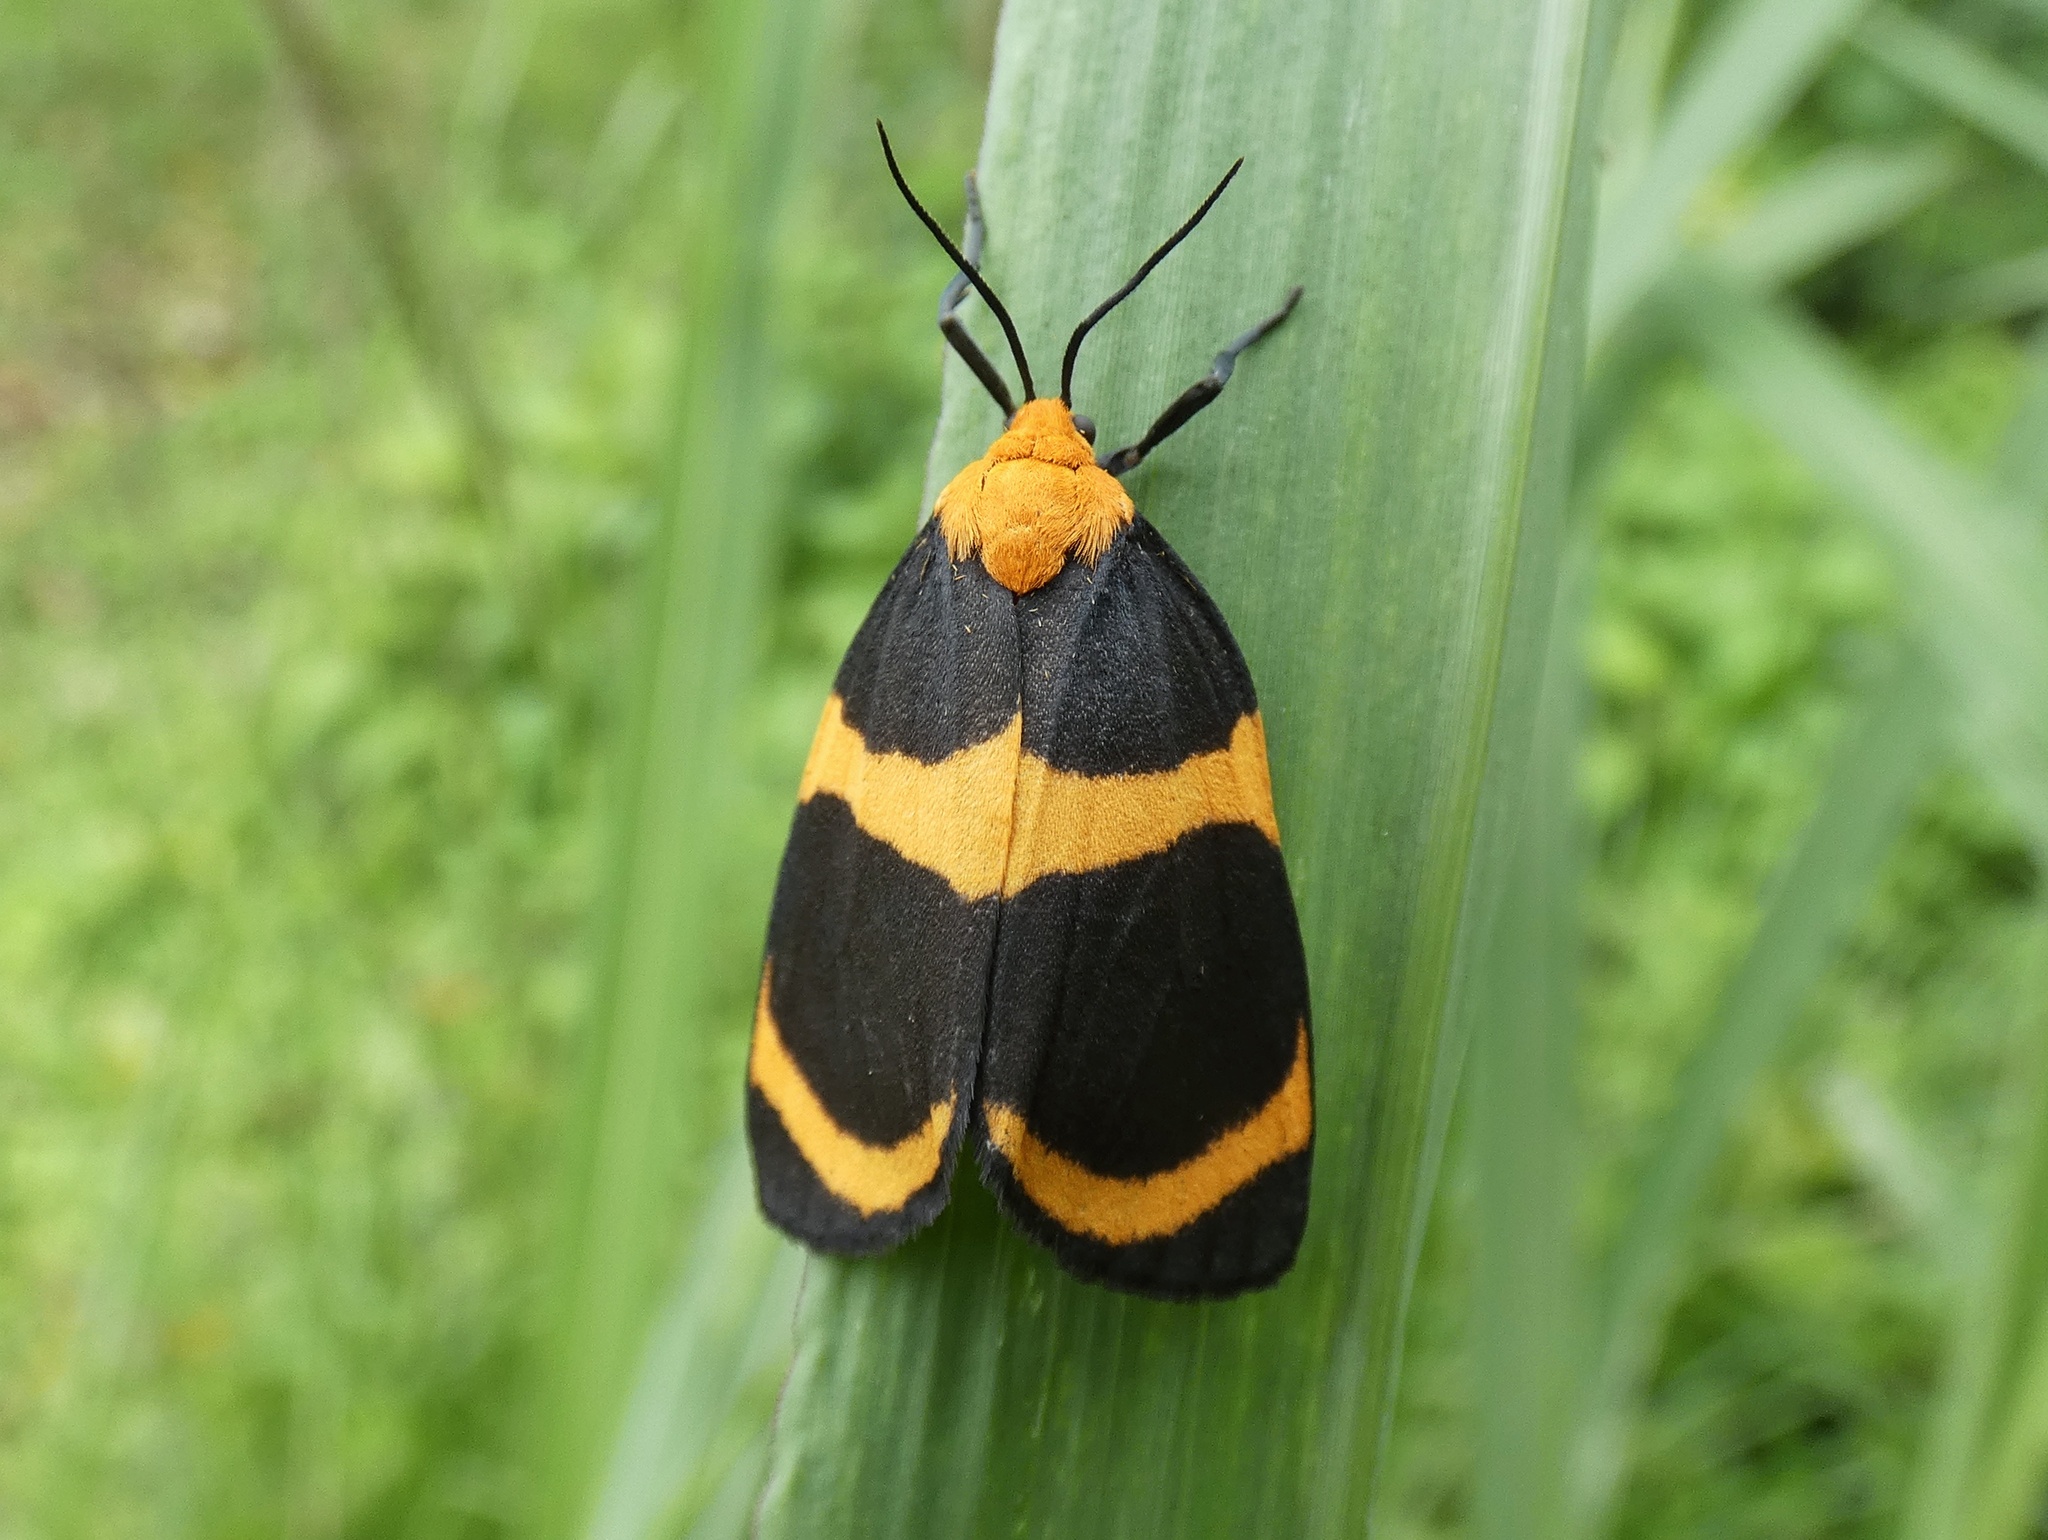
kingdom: Animalia
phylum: Arthropoda
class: Insecta
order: Lepidoptera
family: Erebidae
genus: Eudesmia
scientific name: Eudesmia menea
